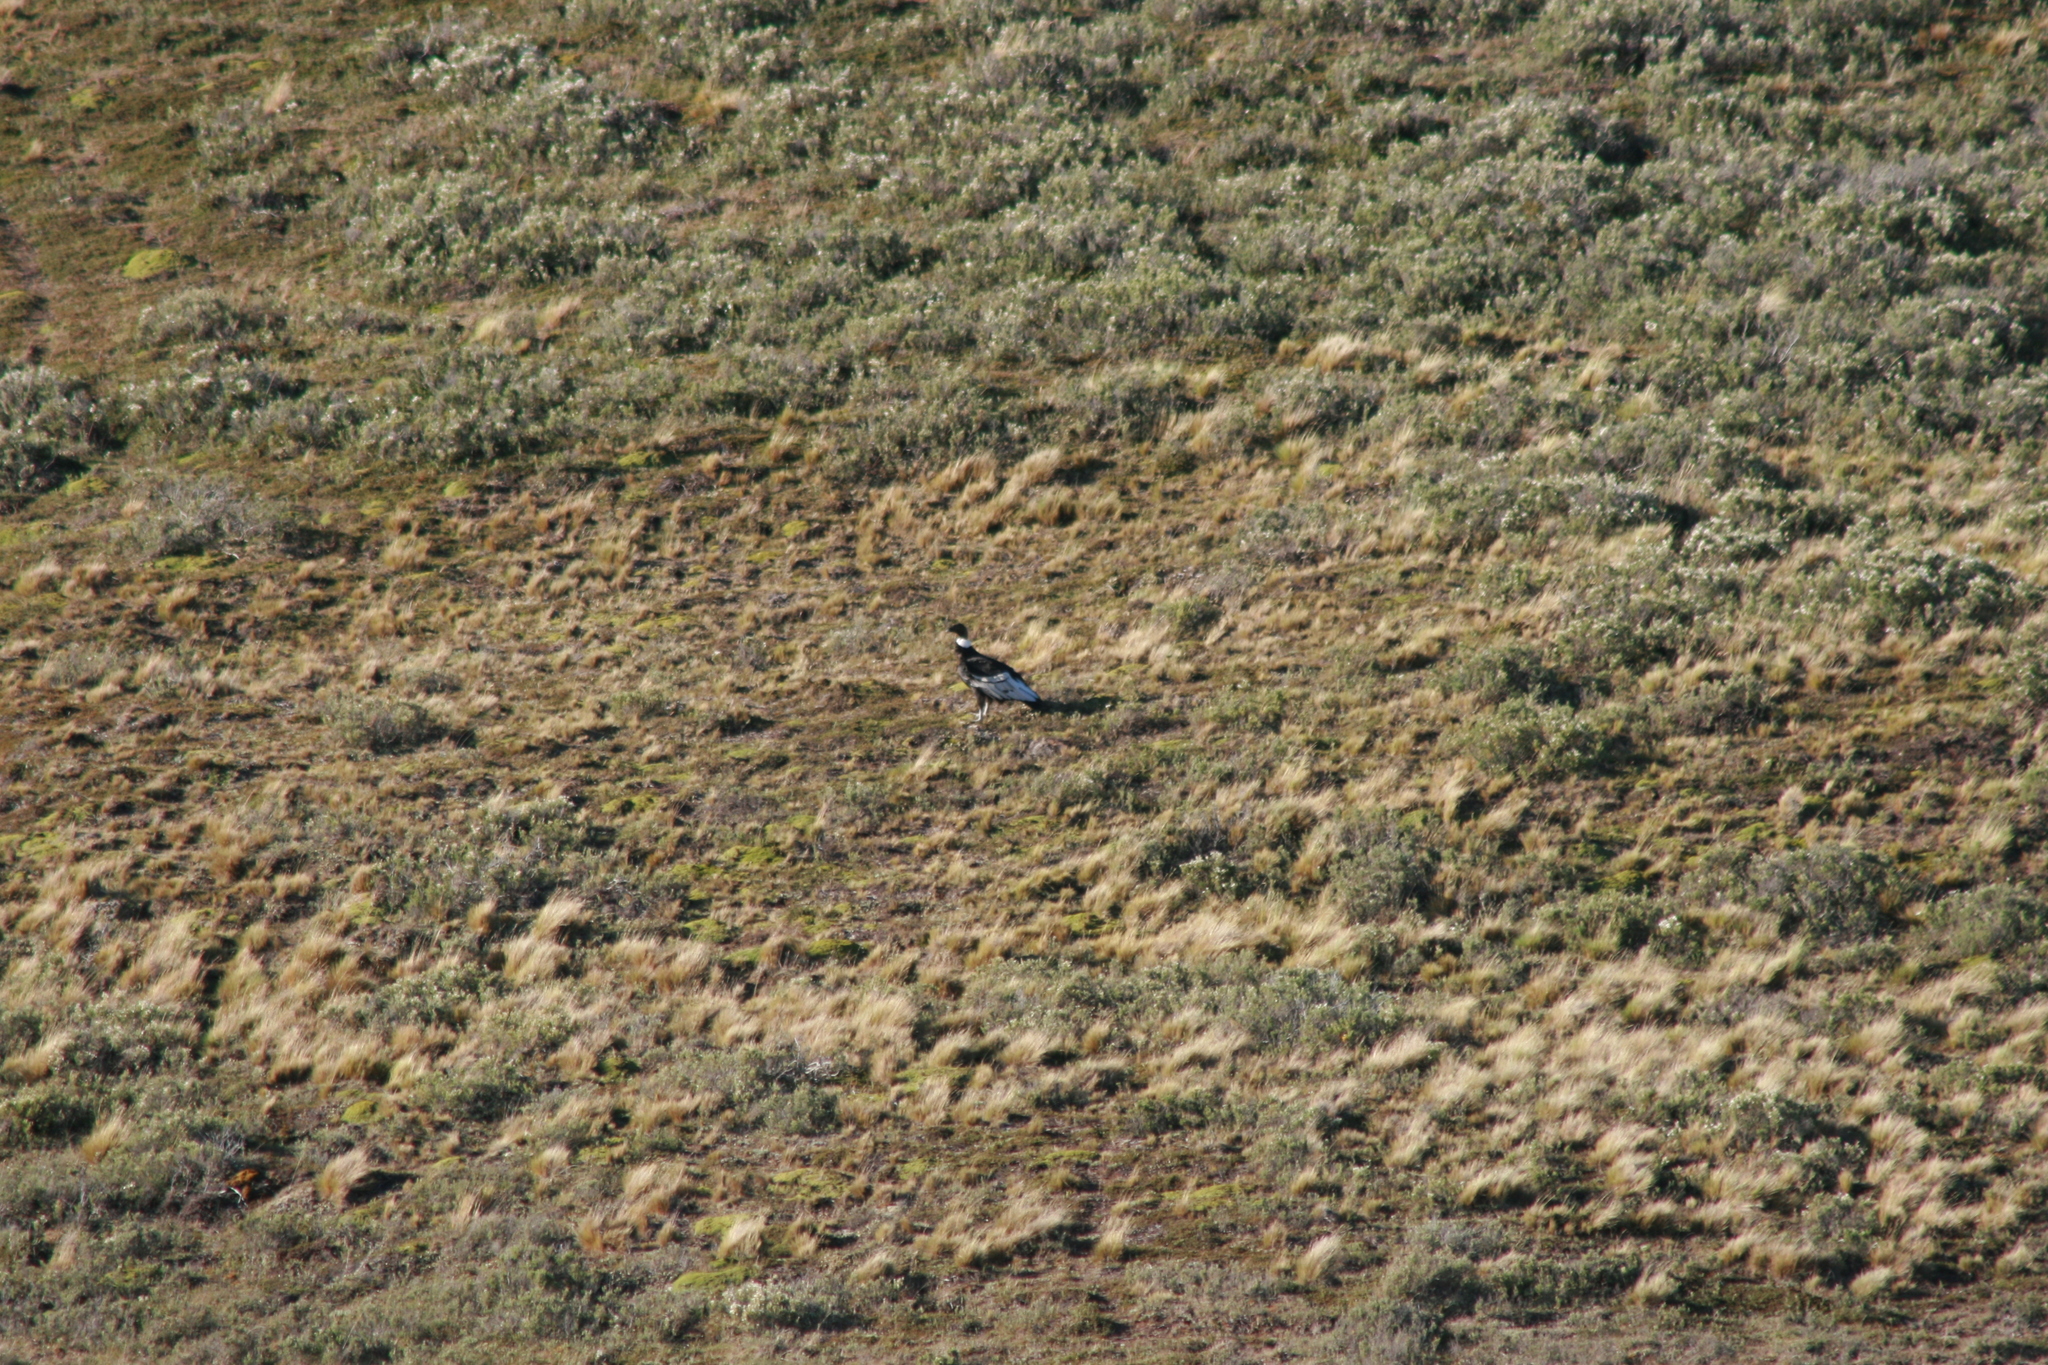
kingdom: Animalia
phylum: Chordata
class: Aves
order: Accipitriformes
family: Cathartidae
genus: Vultur
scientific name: Vultur gryphus
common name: Andean condor
